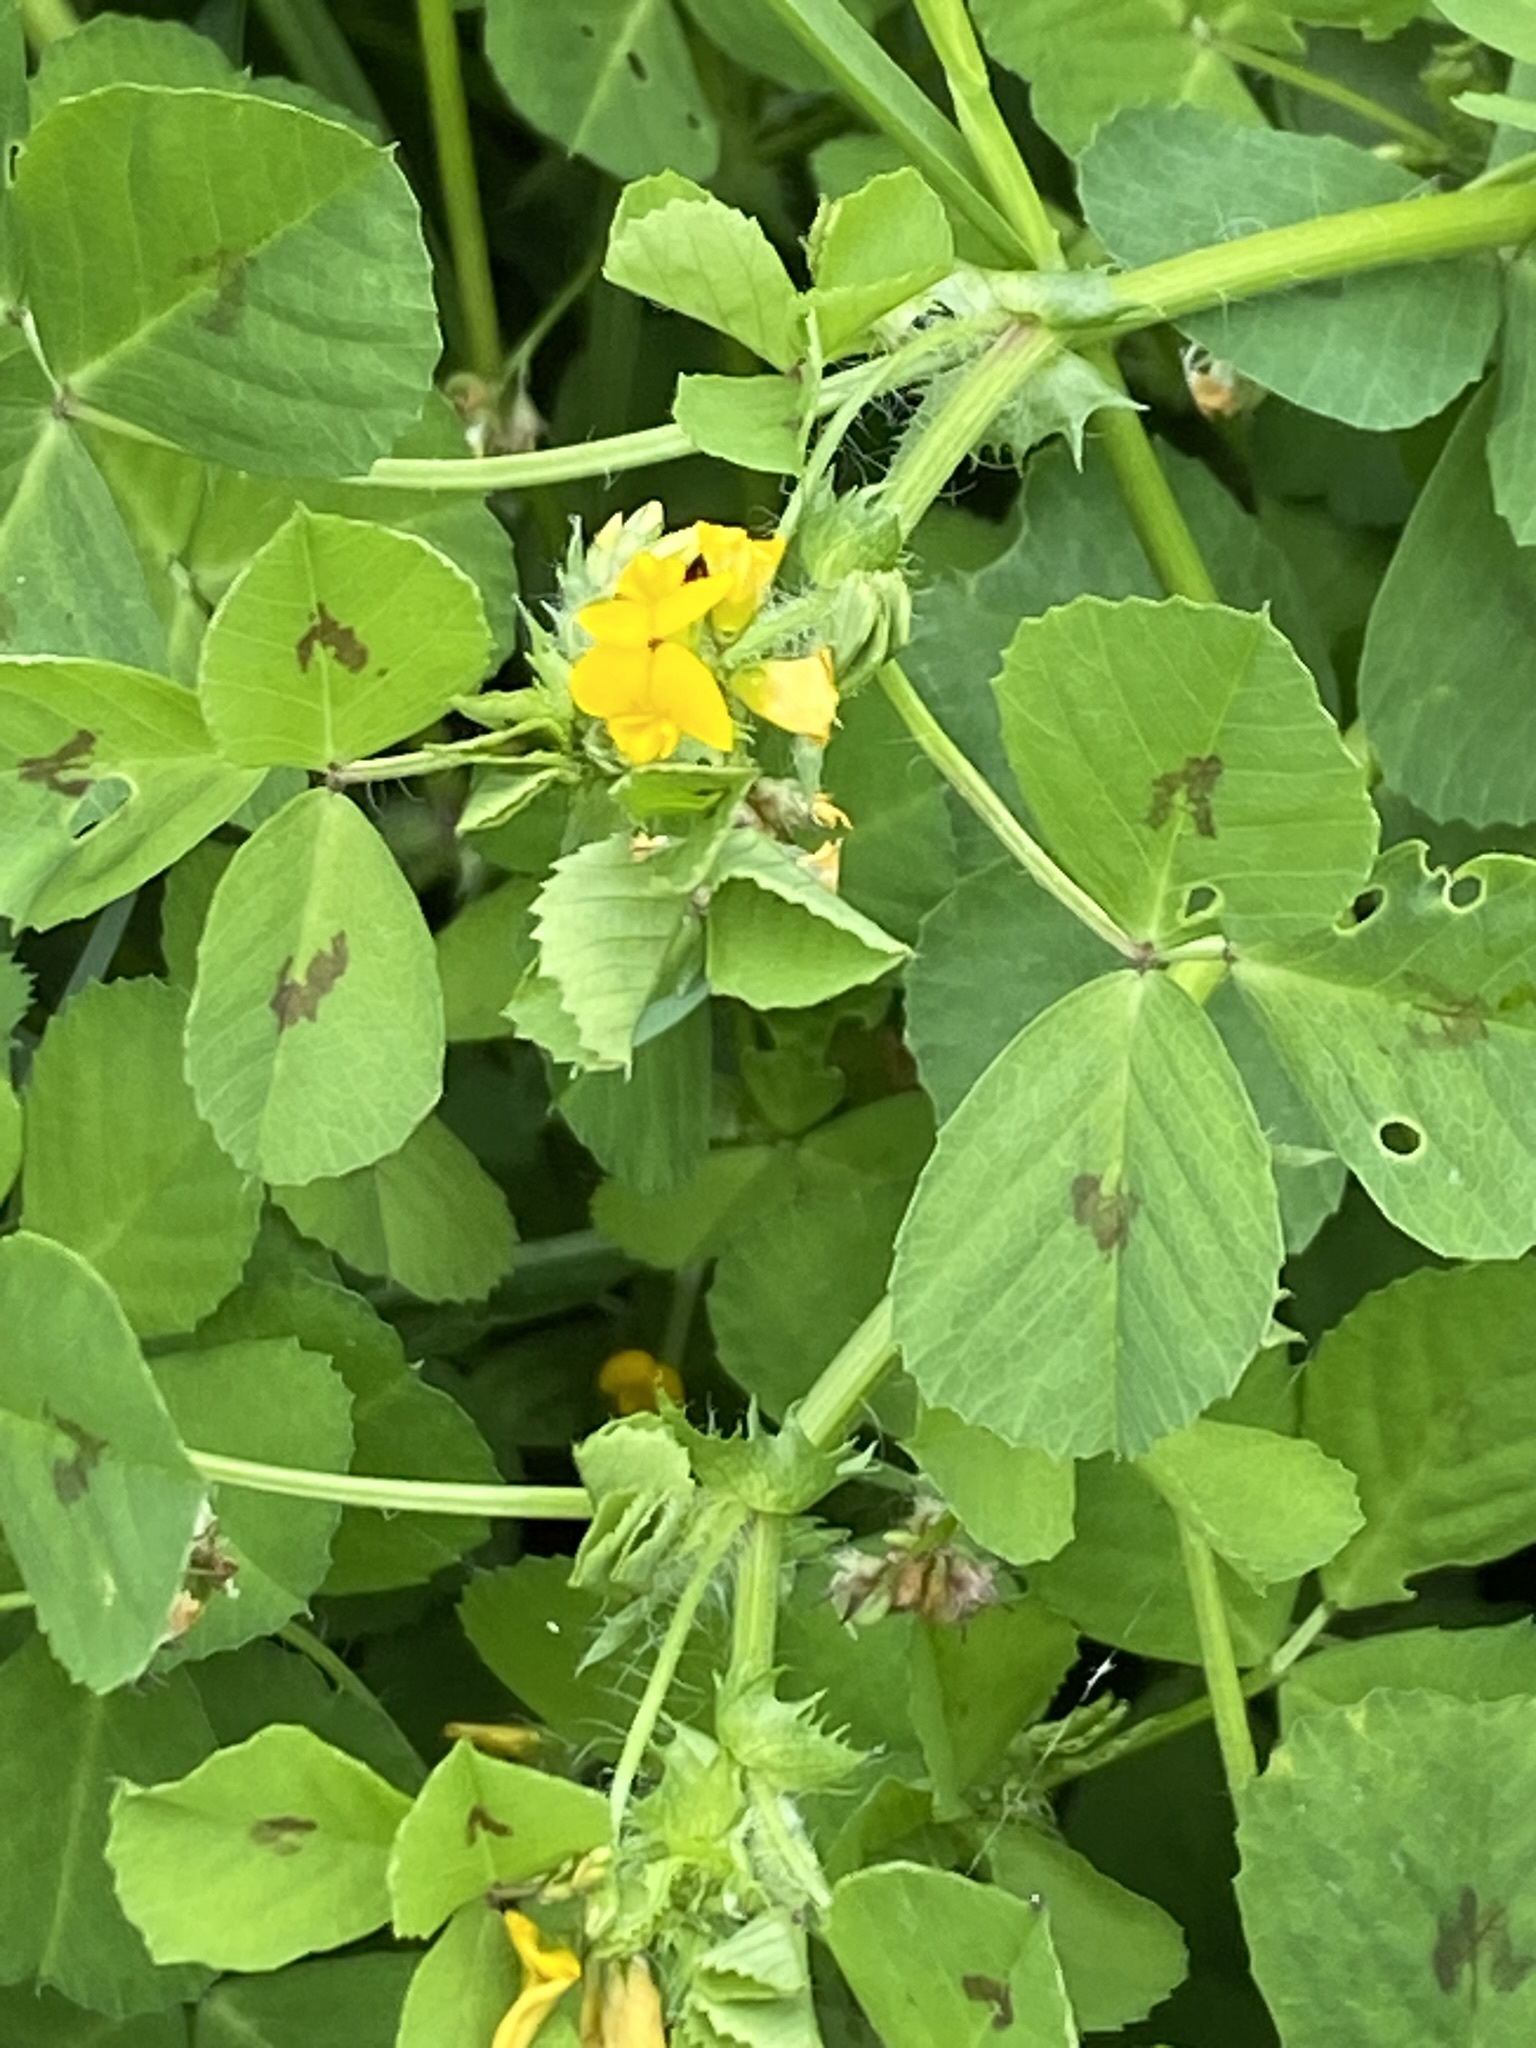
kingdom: Plantae
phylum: Tracheophyta
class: Magnoliopsida
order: Fabales
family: Fabaceae
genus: Medicago
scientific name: Medicago arabica
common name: Spotted medick
